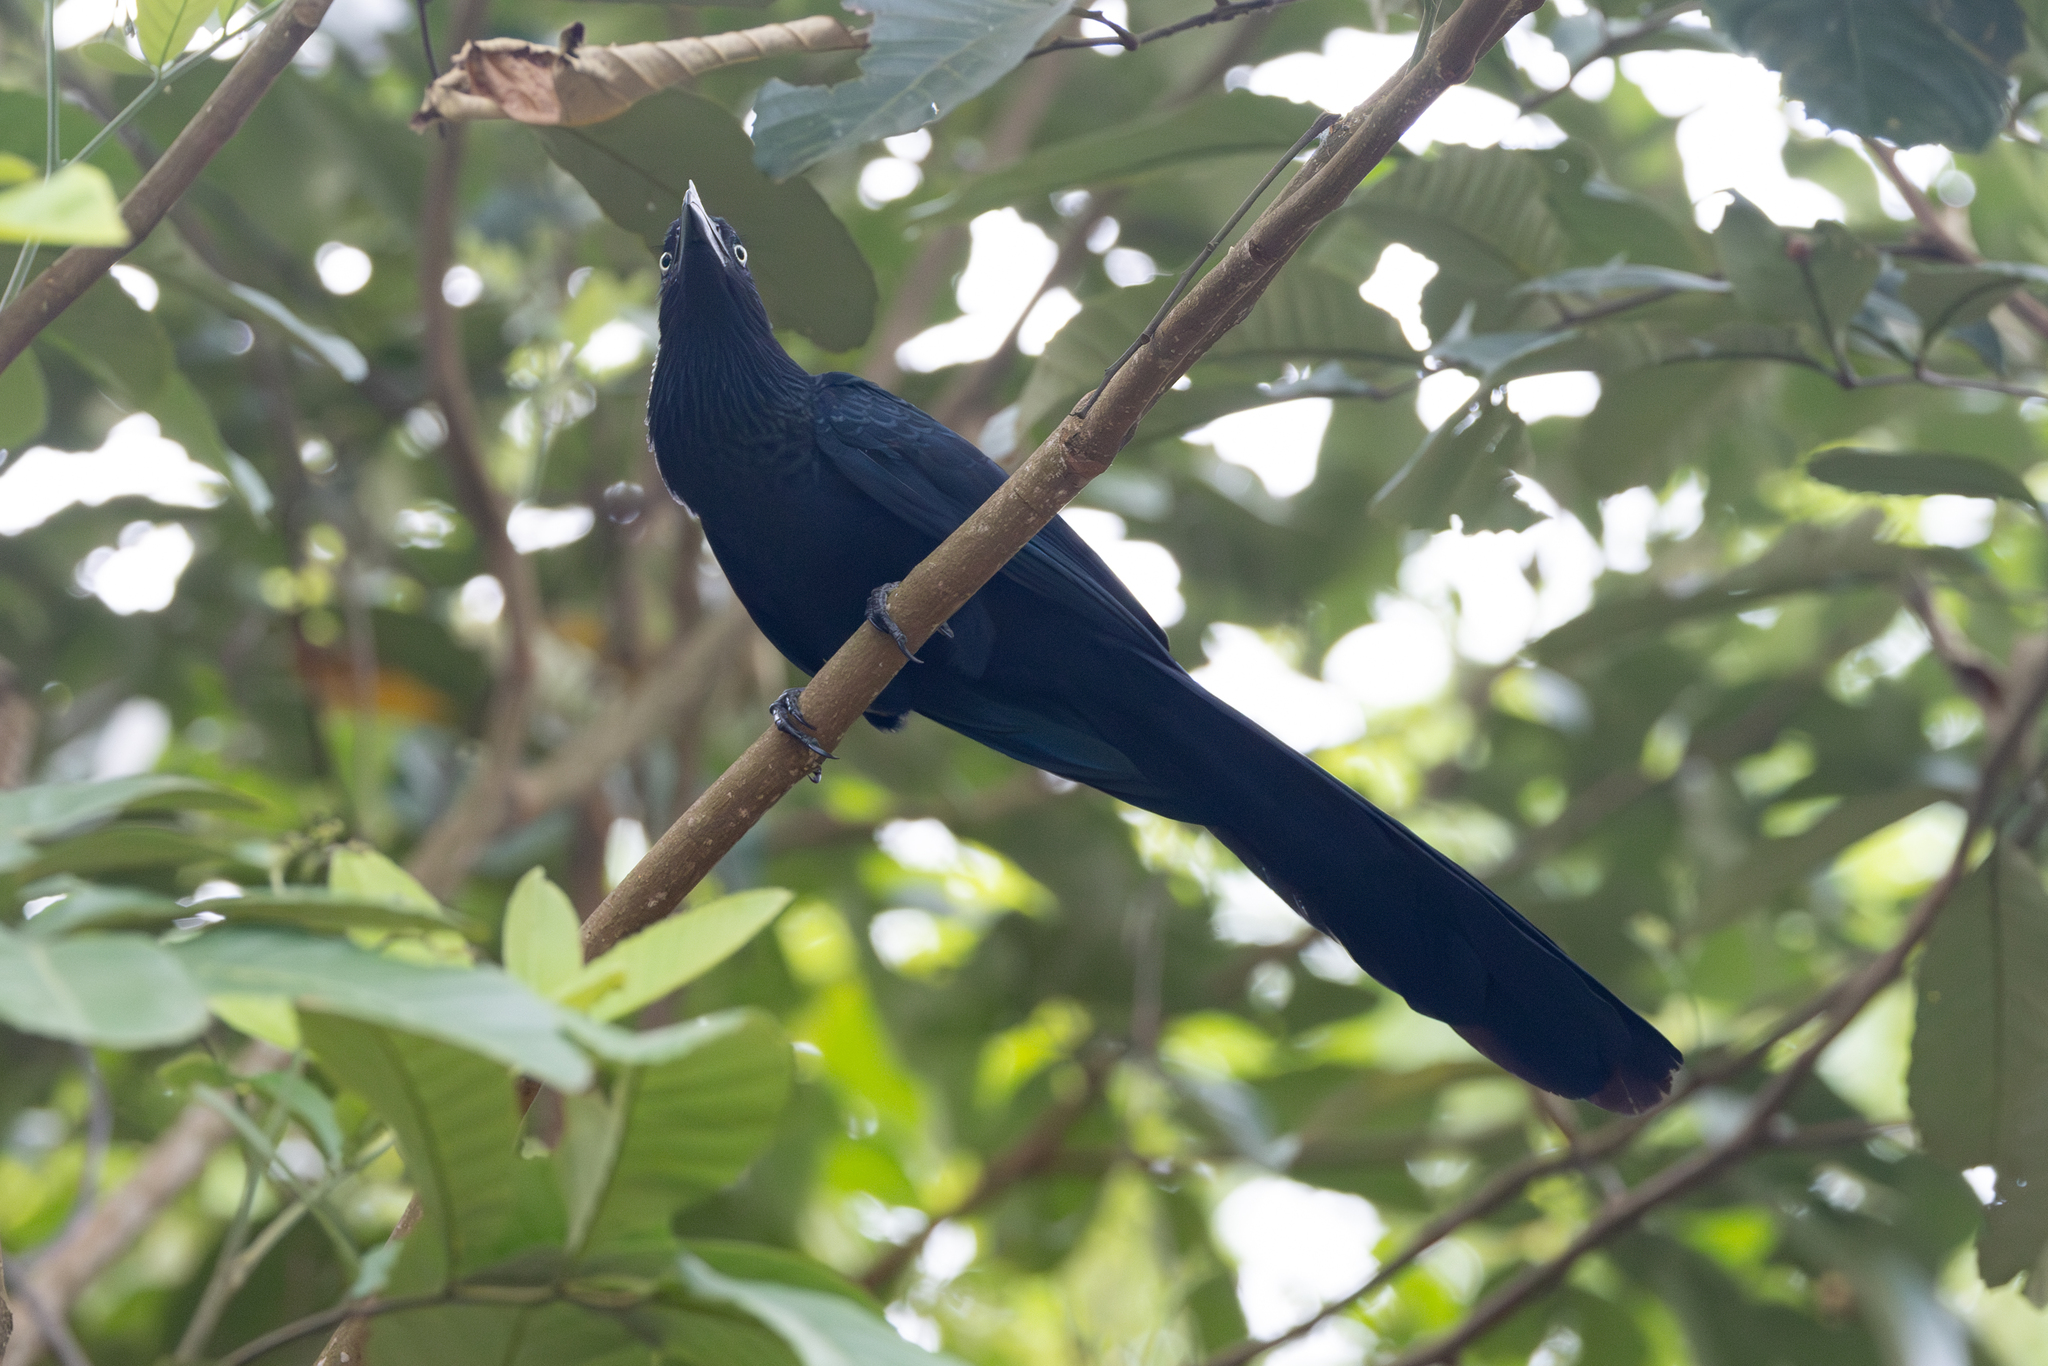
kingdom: Animalia
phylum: Chordata
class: Aves
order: Cuculiformes
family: Cuculidae
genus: Crotophaga
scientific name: Crotophaga major
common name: Greater ani
